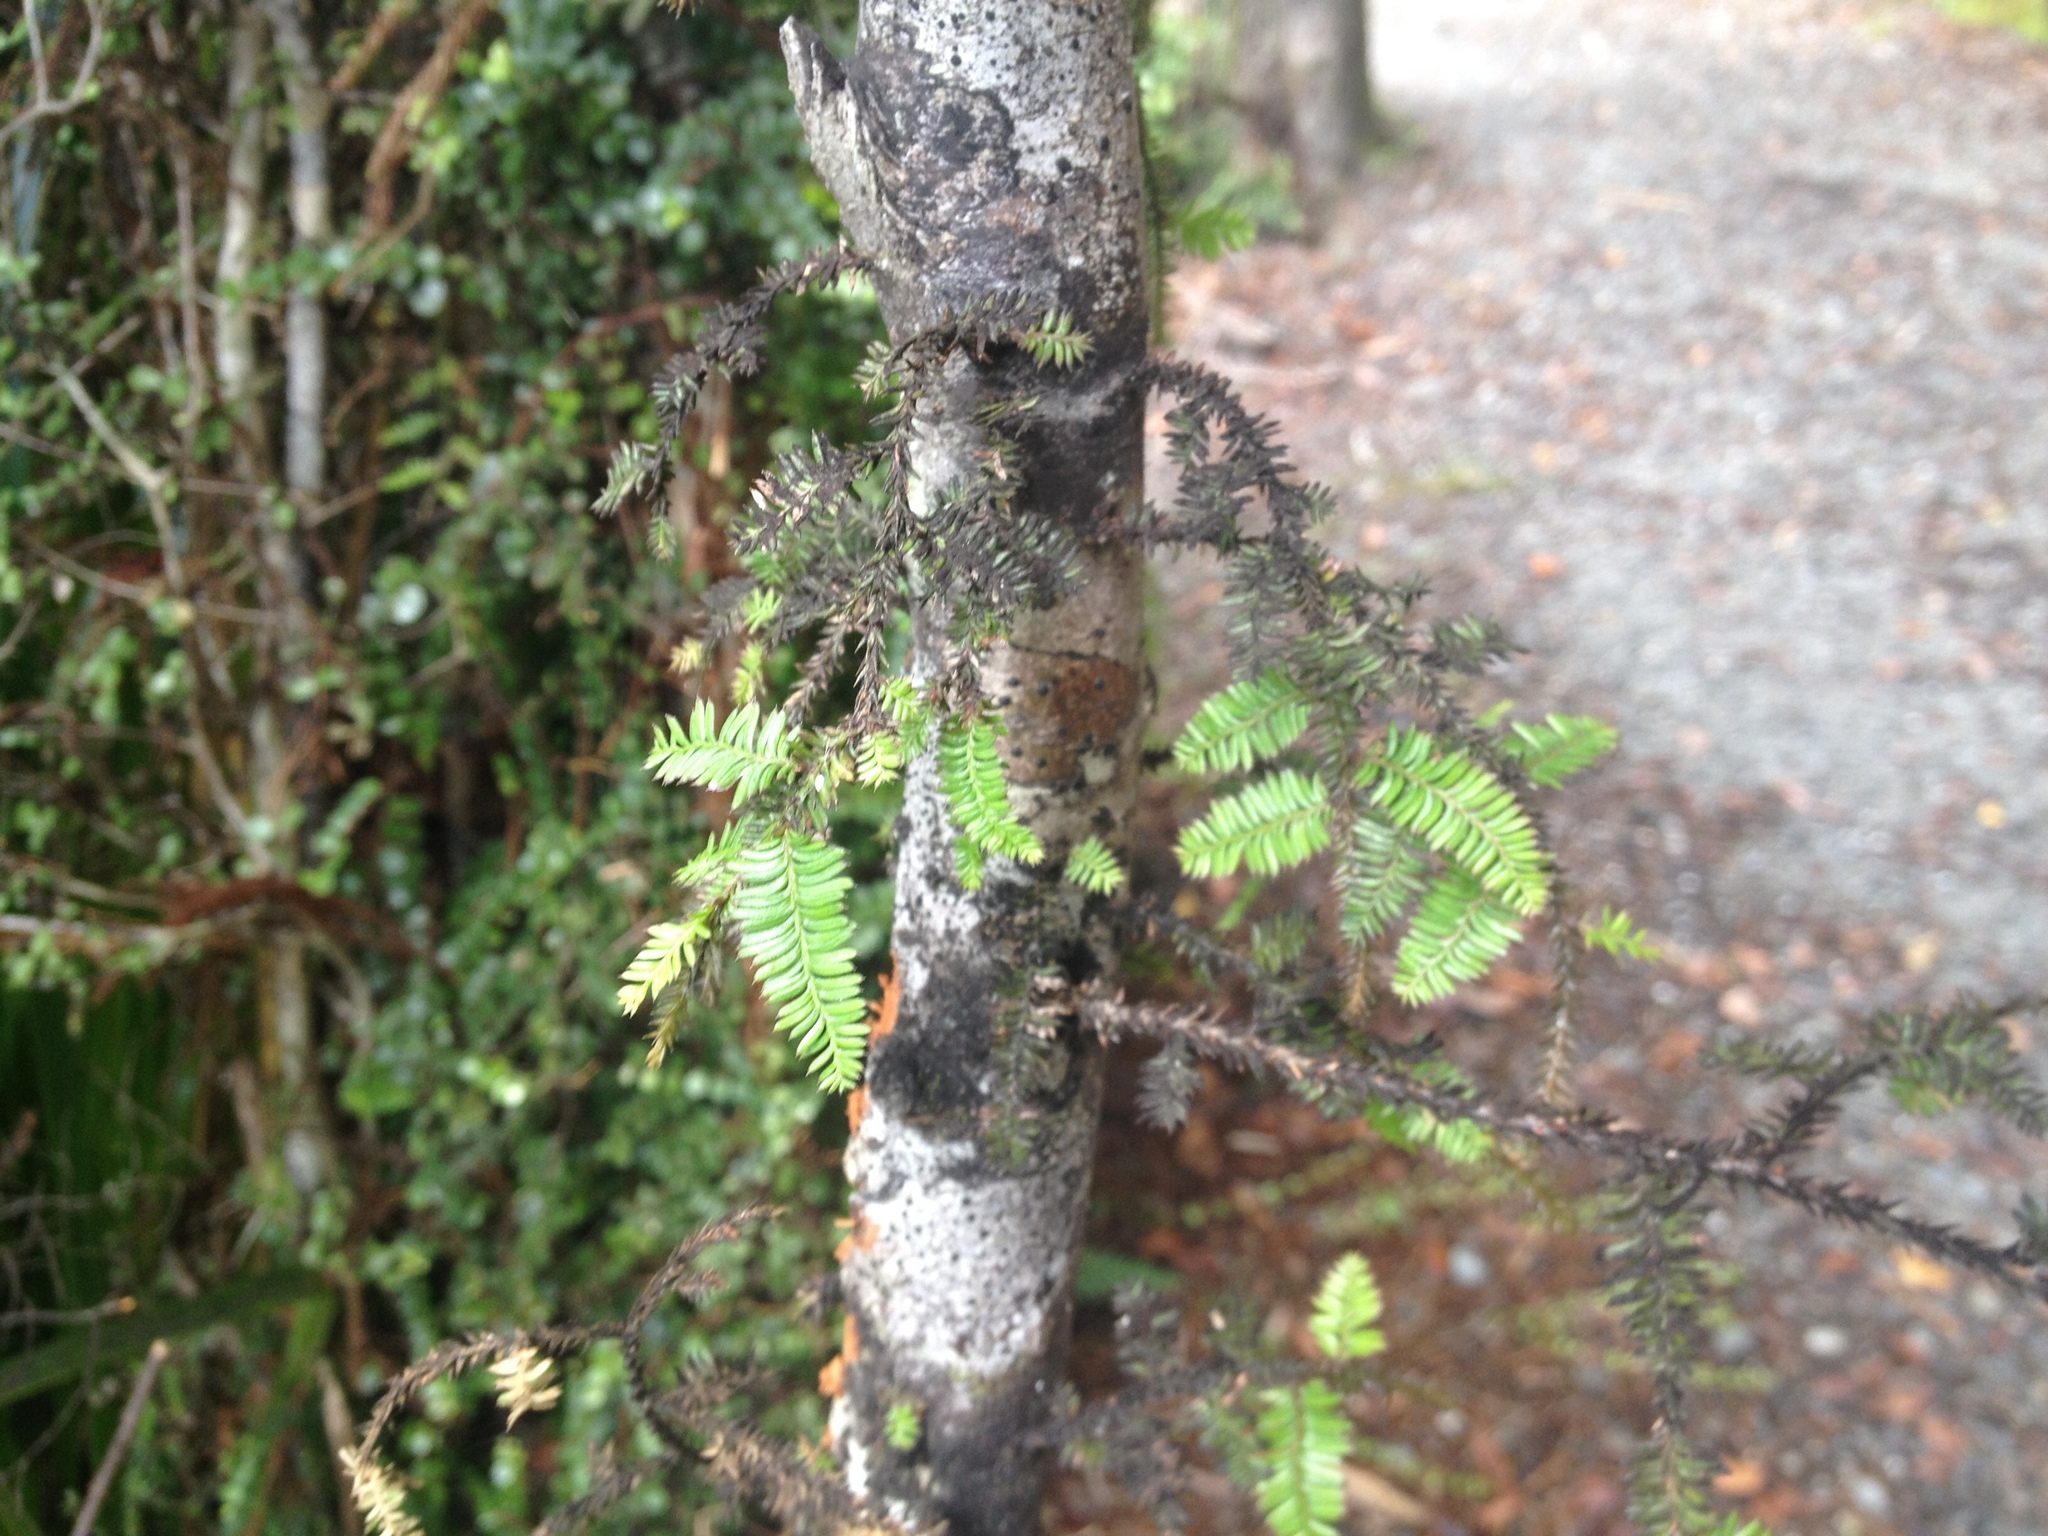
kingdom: Plantae
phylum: Tracheophyta
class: Pinopsida
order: Pinales
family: Podocarpaceae
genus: Dacrycarpus
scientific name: Dacrycarpus dacrydioides
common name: White pine
